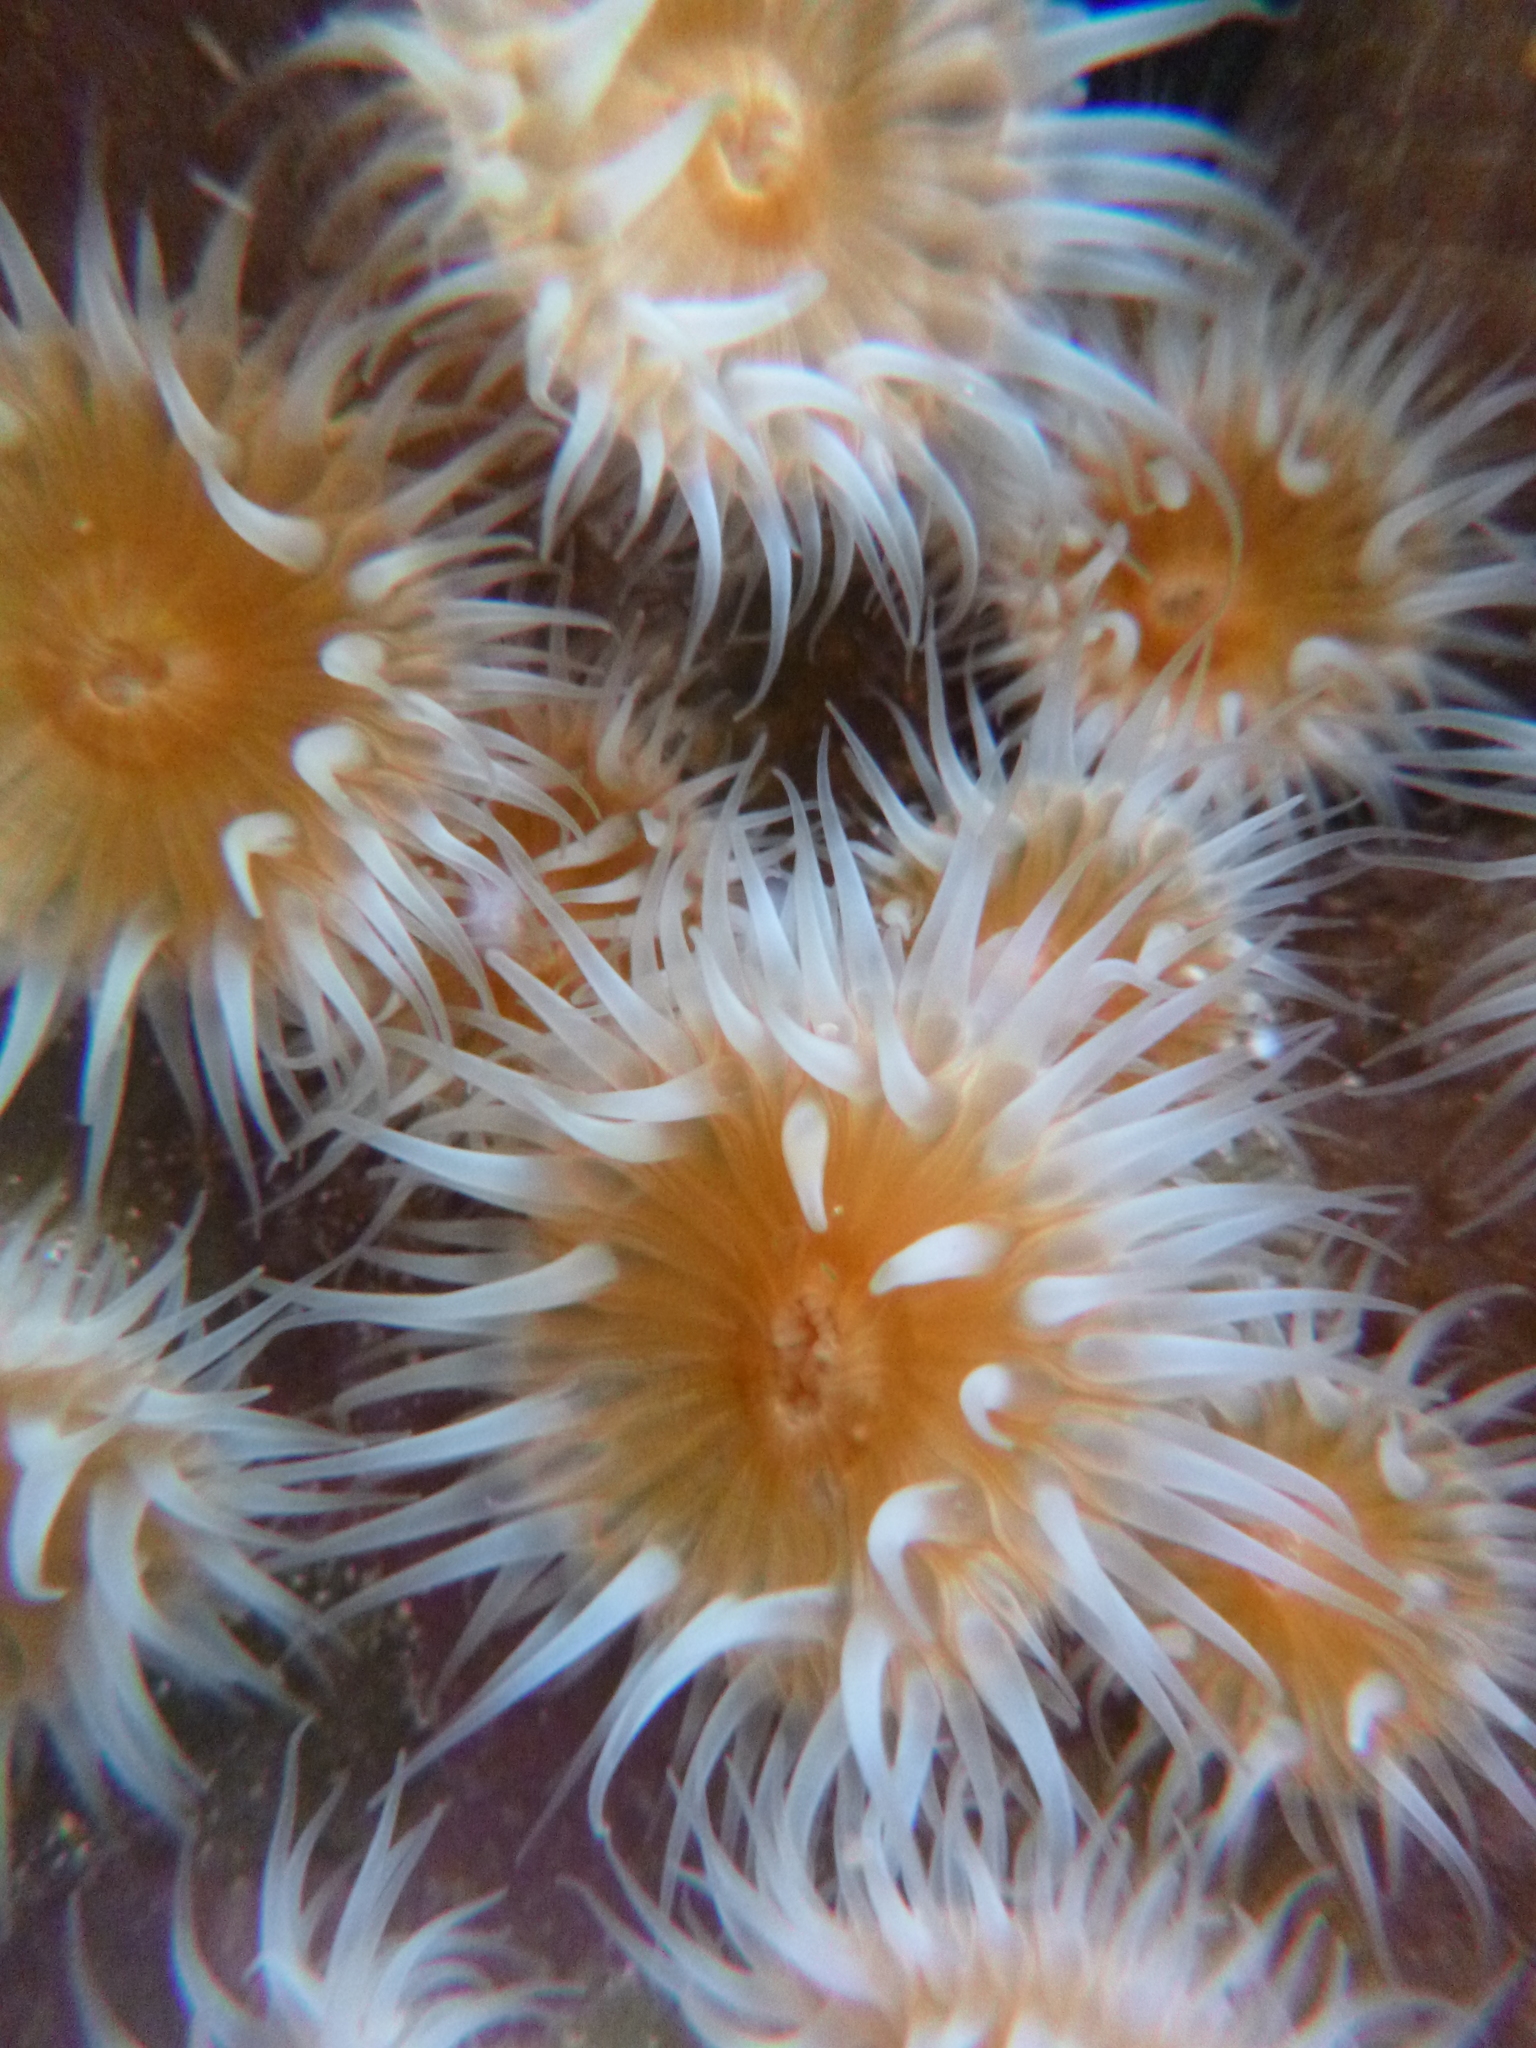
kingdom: Animalia
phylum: Cnidaria
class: Anthozoa
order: Actiniaria
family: Sagartiidae
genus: Anthothoe
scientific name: Anthothoe albocincta
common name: Orange striped anemone
